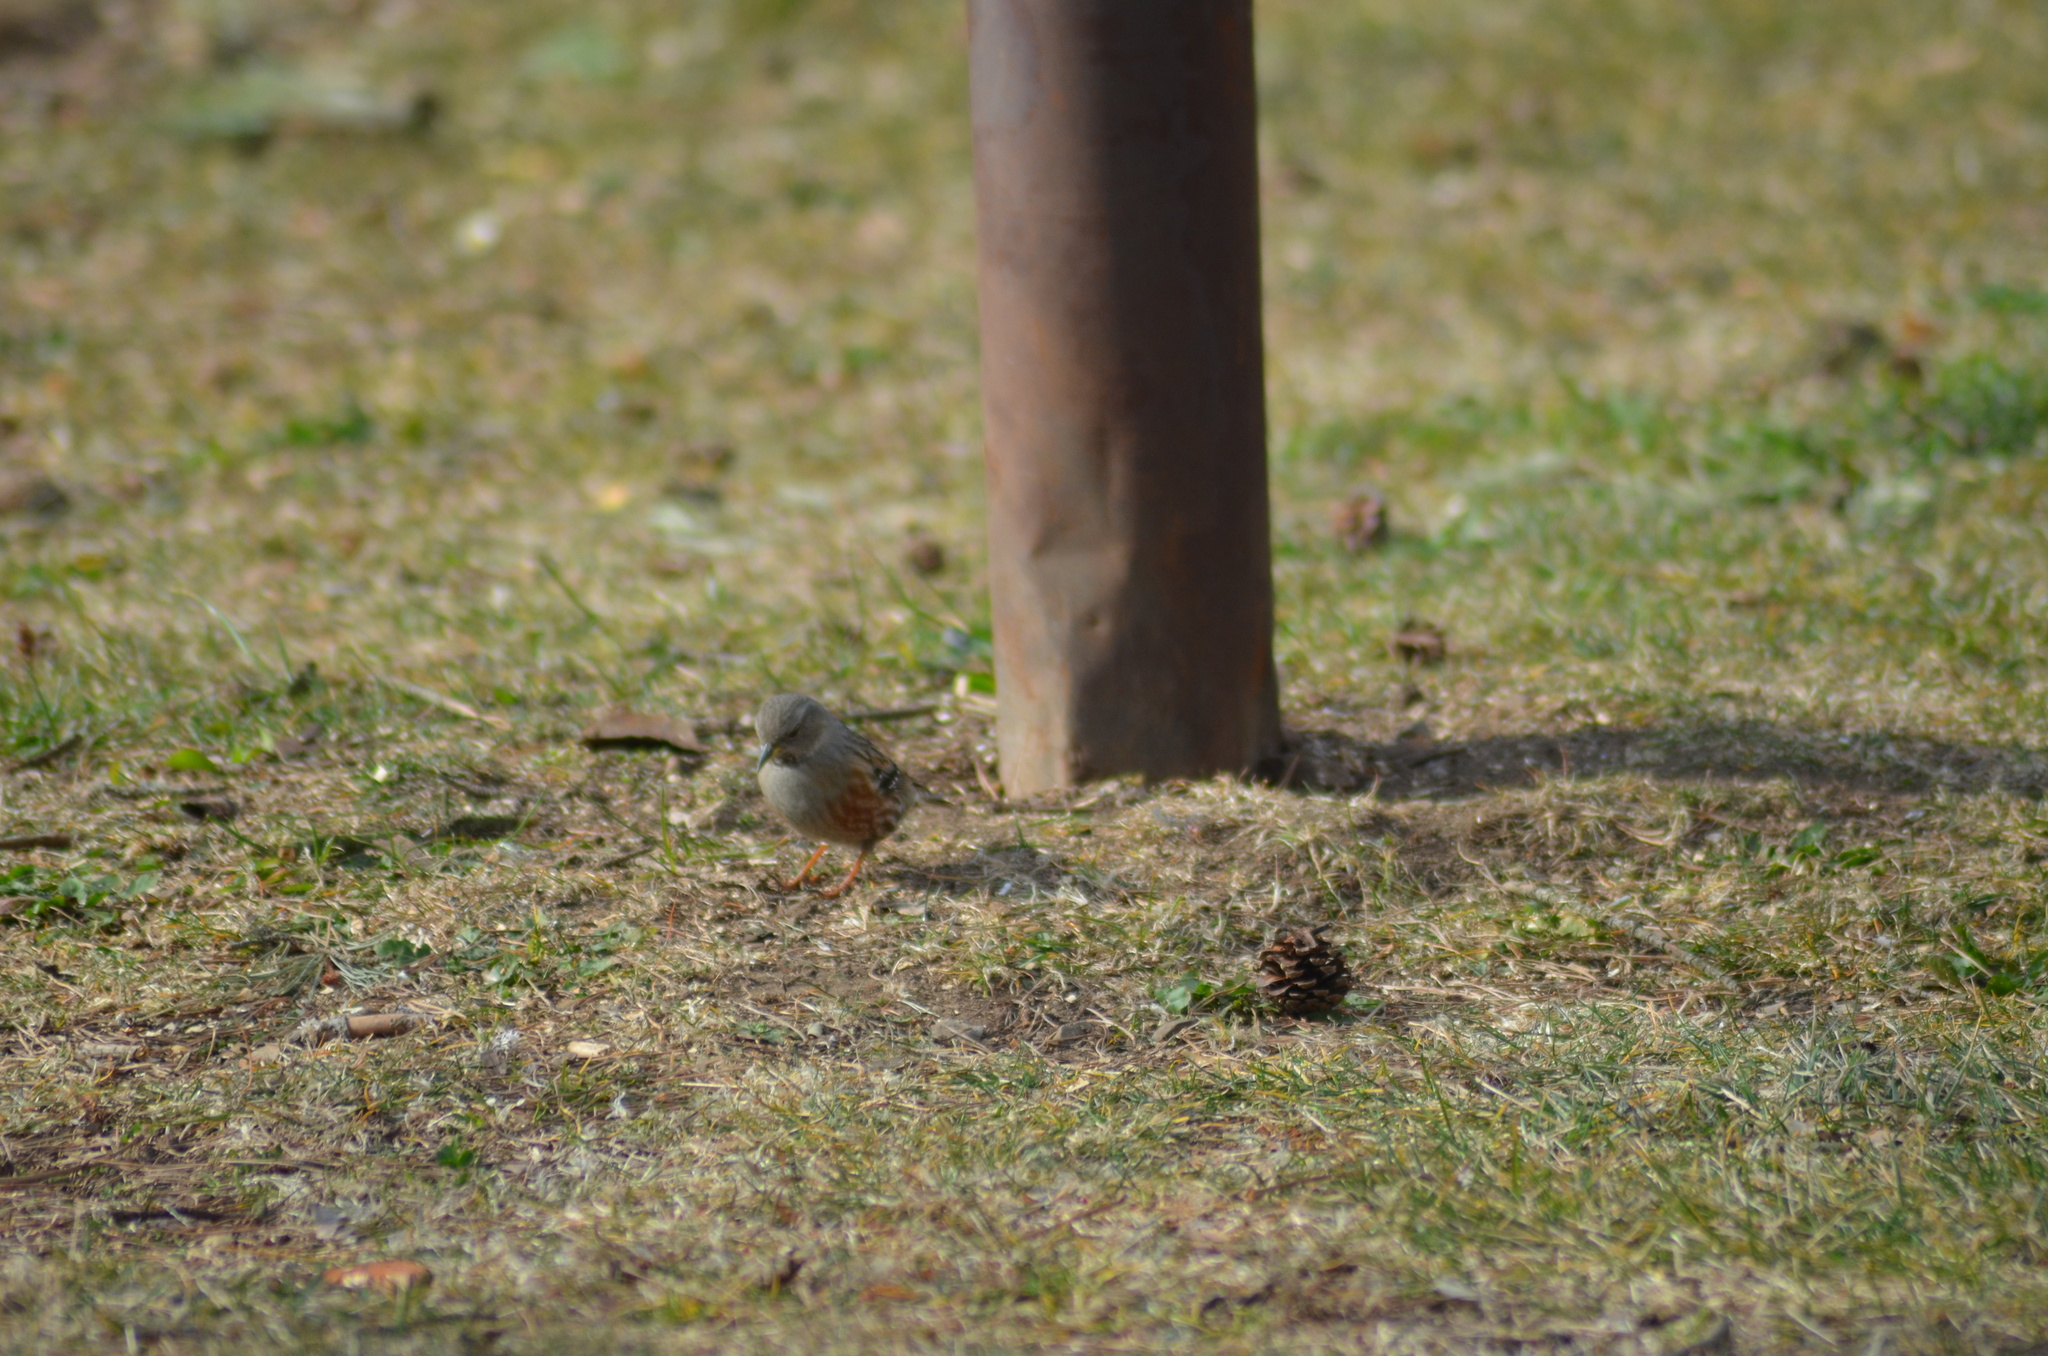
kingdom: Animalia
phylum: Chordata
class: Aves
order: Passeriformes
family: Prunellidae
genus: Prunella
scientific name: Prunella collaris
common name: Alpine accentor
